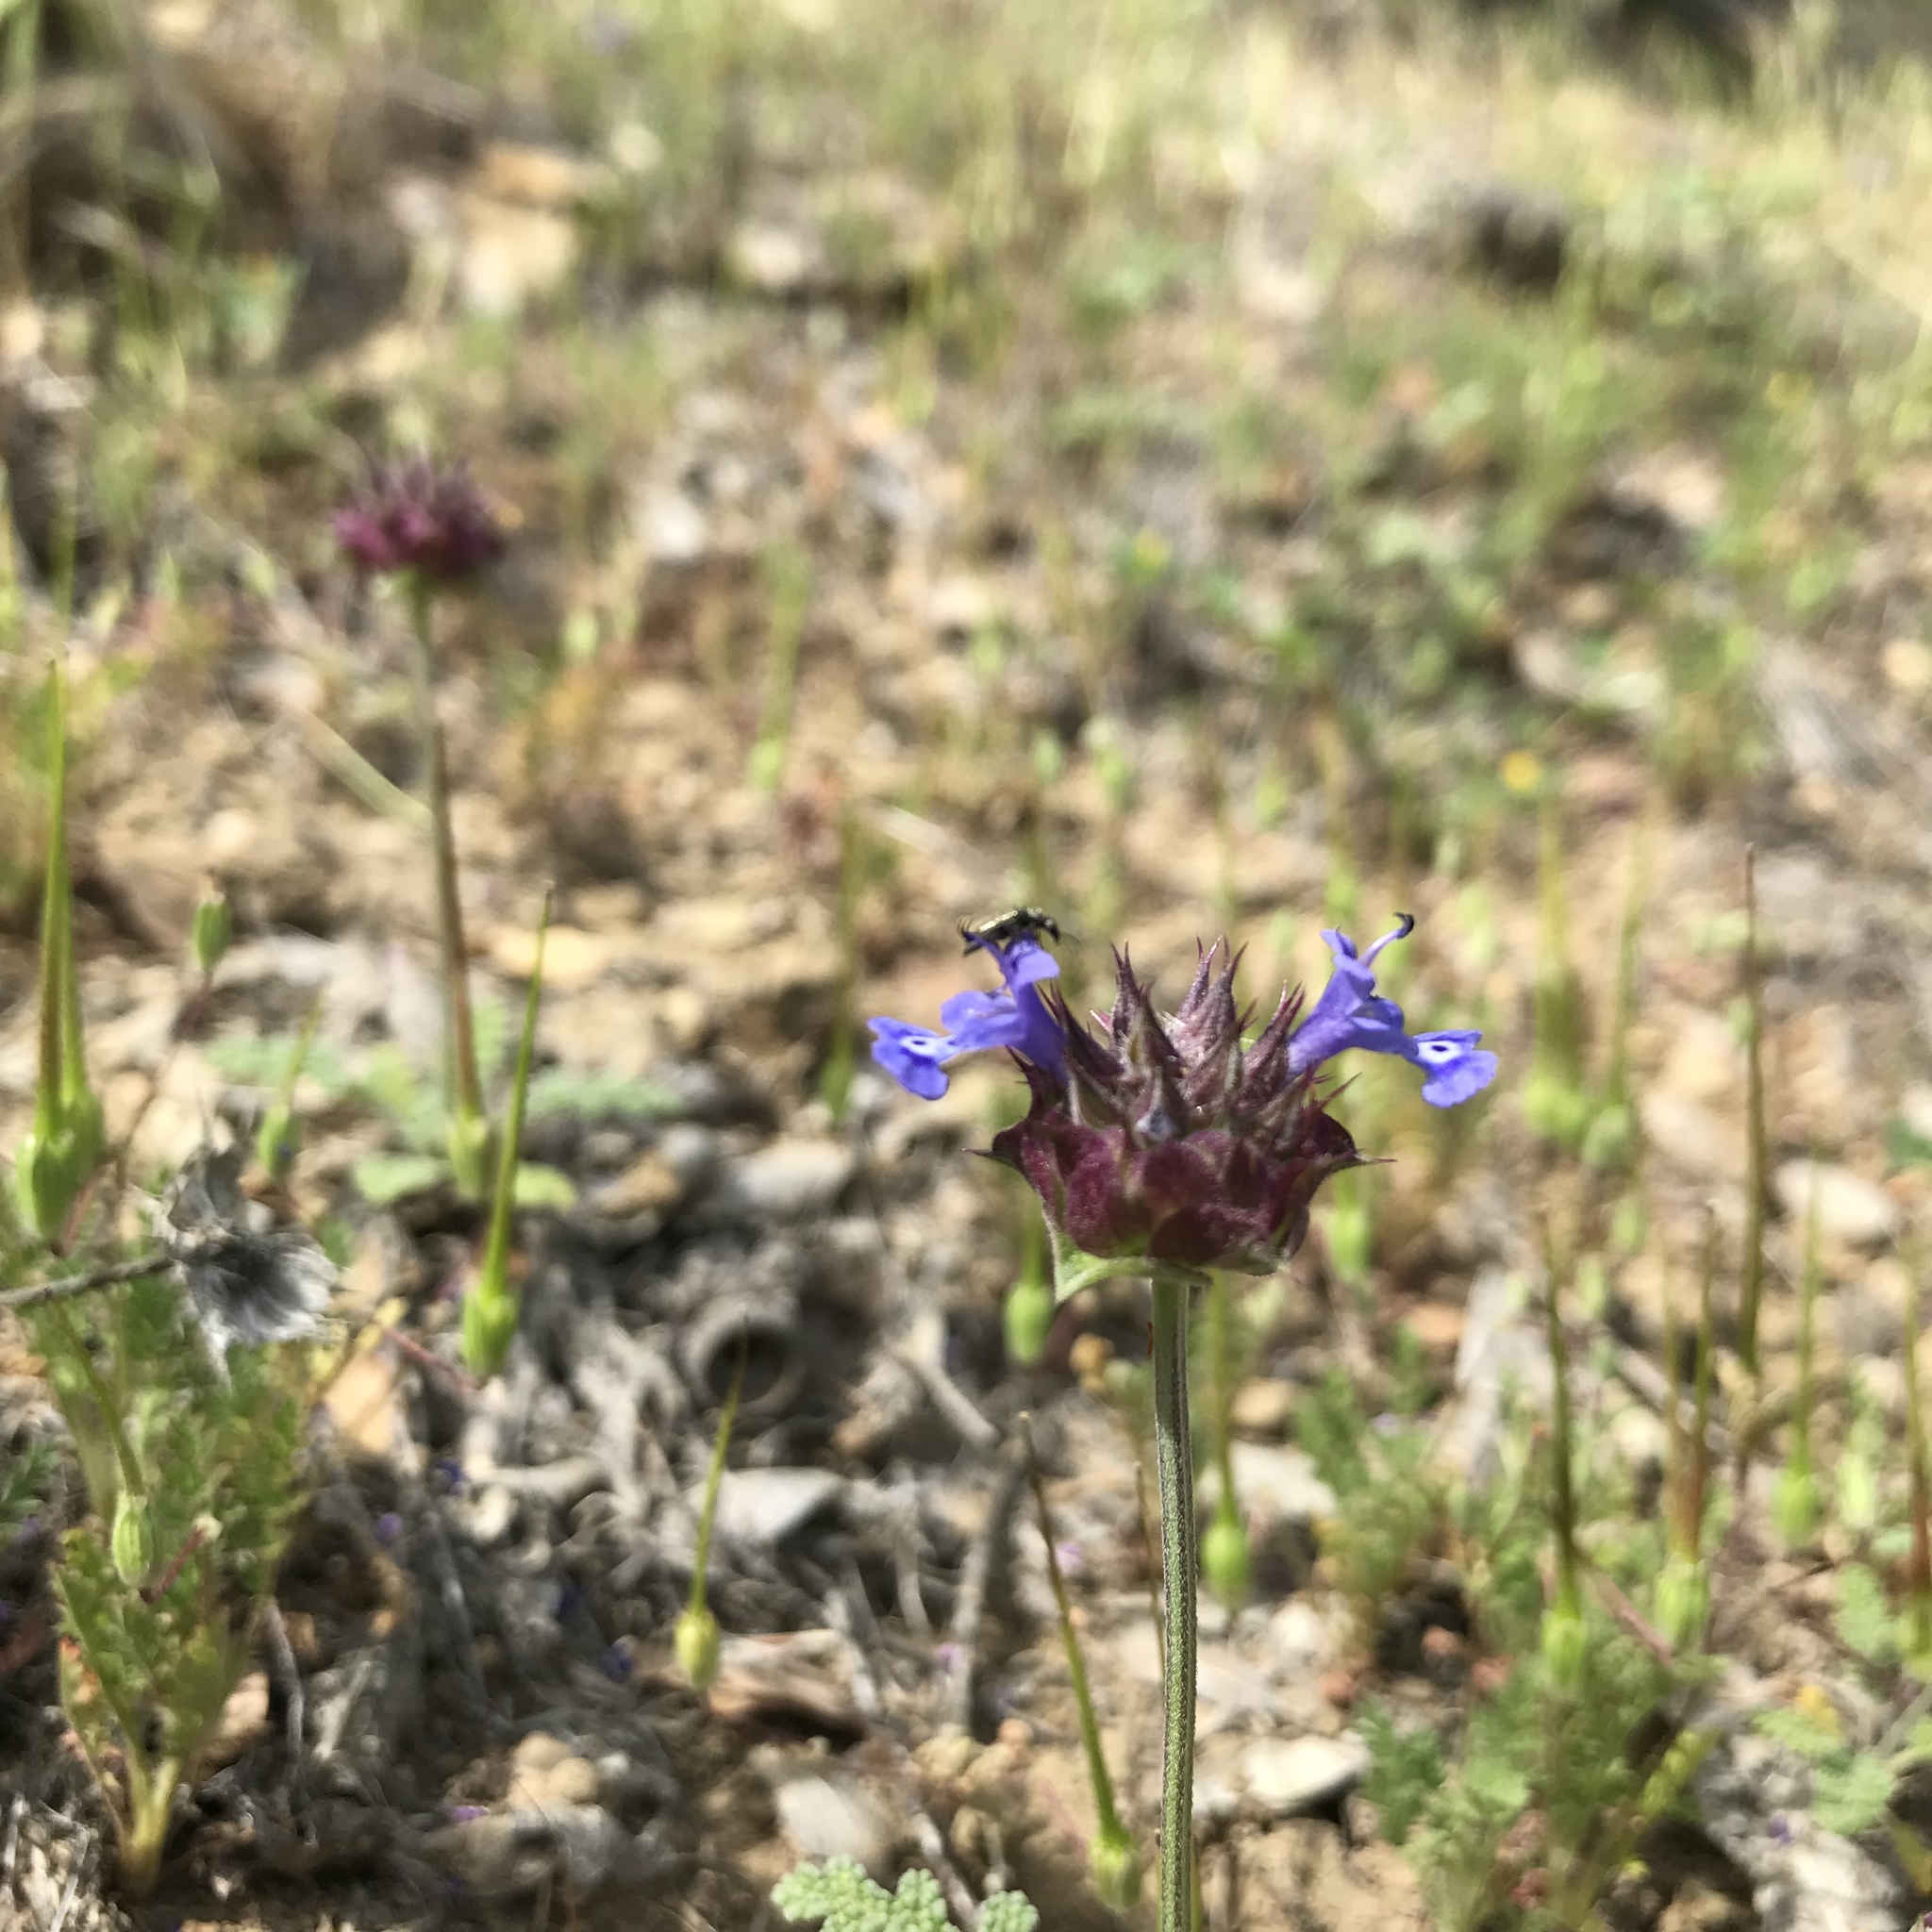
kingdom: Plantae
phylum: Tracheophyta
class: Magnoliopsida
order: Lamiales
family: Lamiaceae
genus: Salvia
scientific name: Salvia columbariae
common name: Chia
